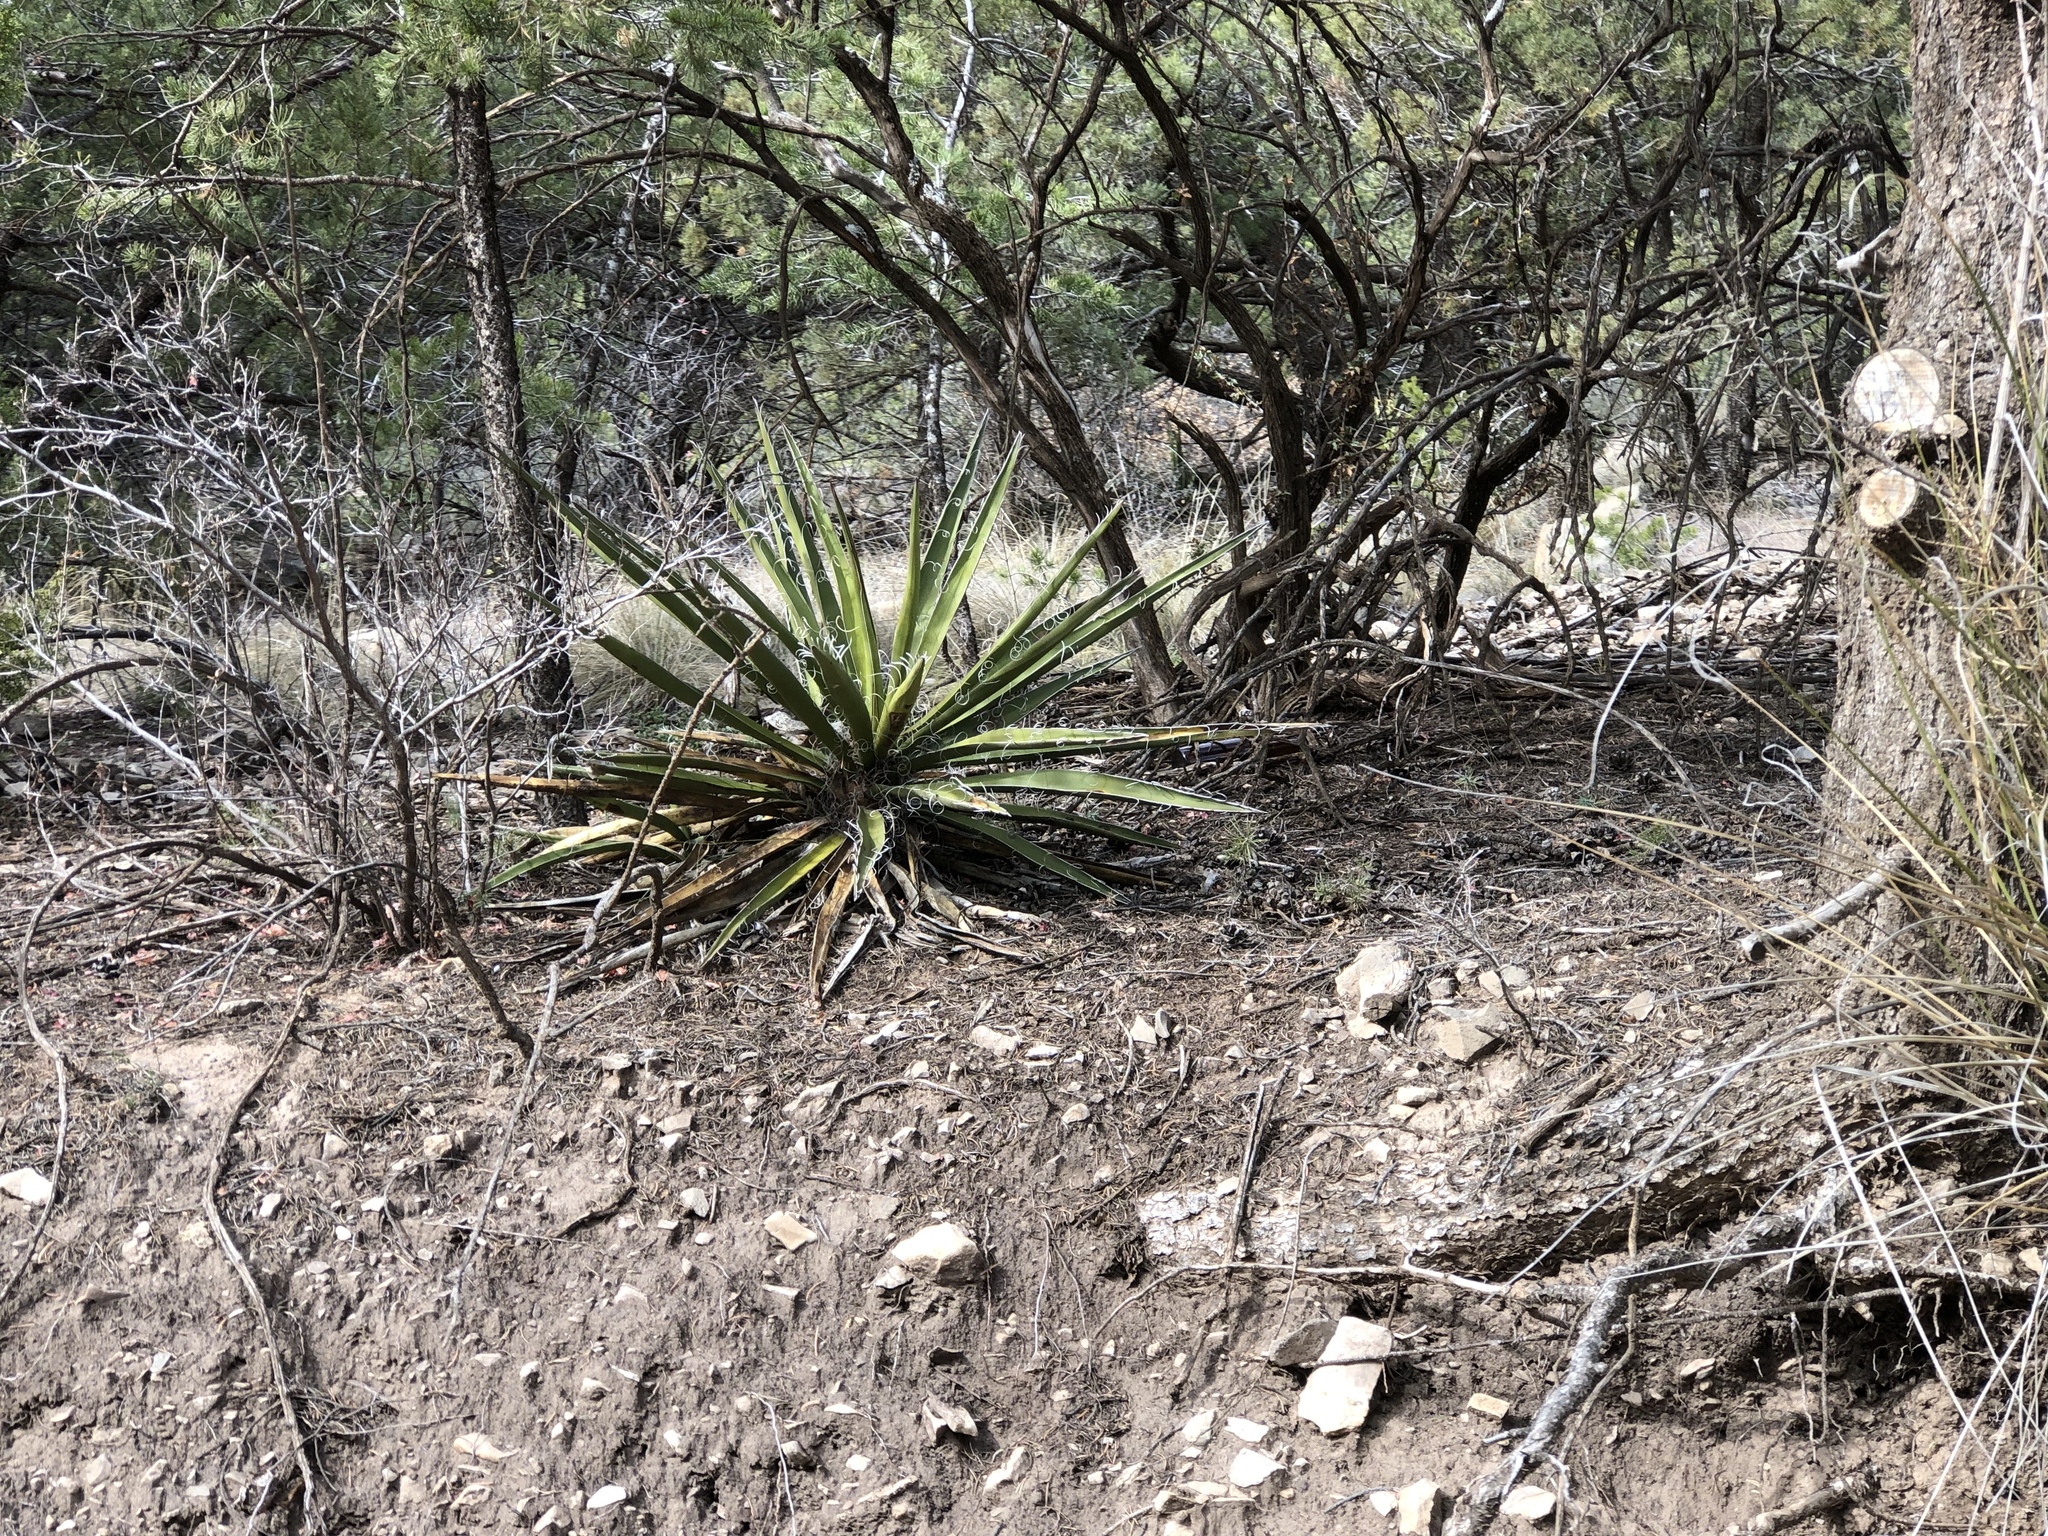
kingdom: Plantae
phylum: Tracheophyta
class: Liliopsida
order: Asparagales
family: Asparagaceae
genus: Yucca
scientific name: Yucca baccata
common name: Banana yucca
